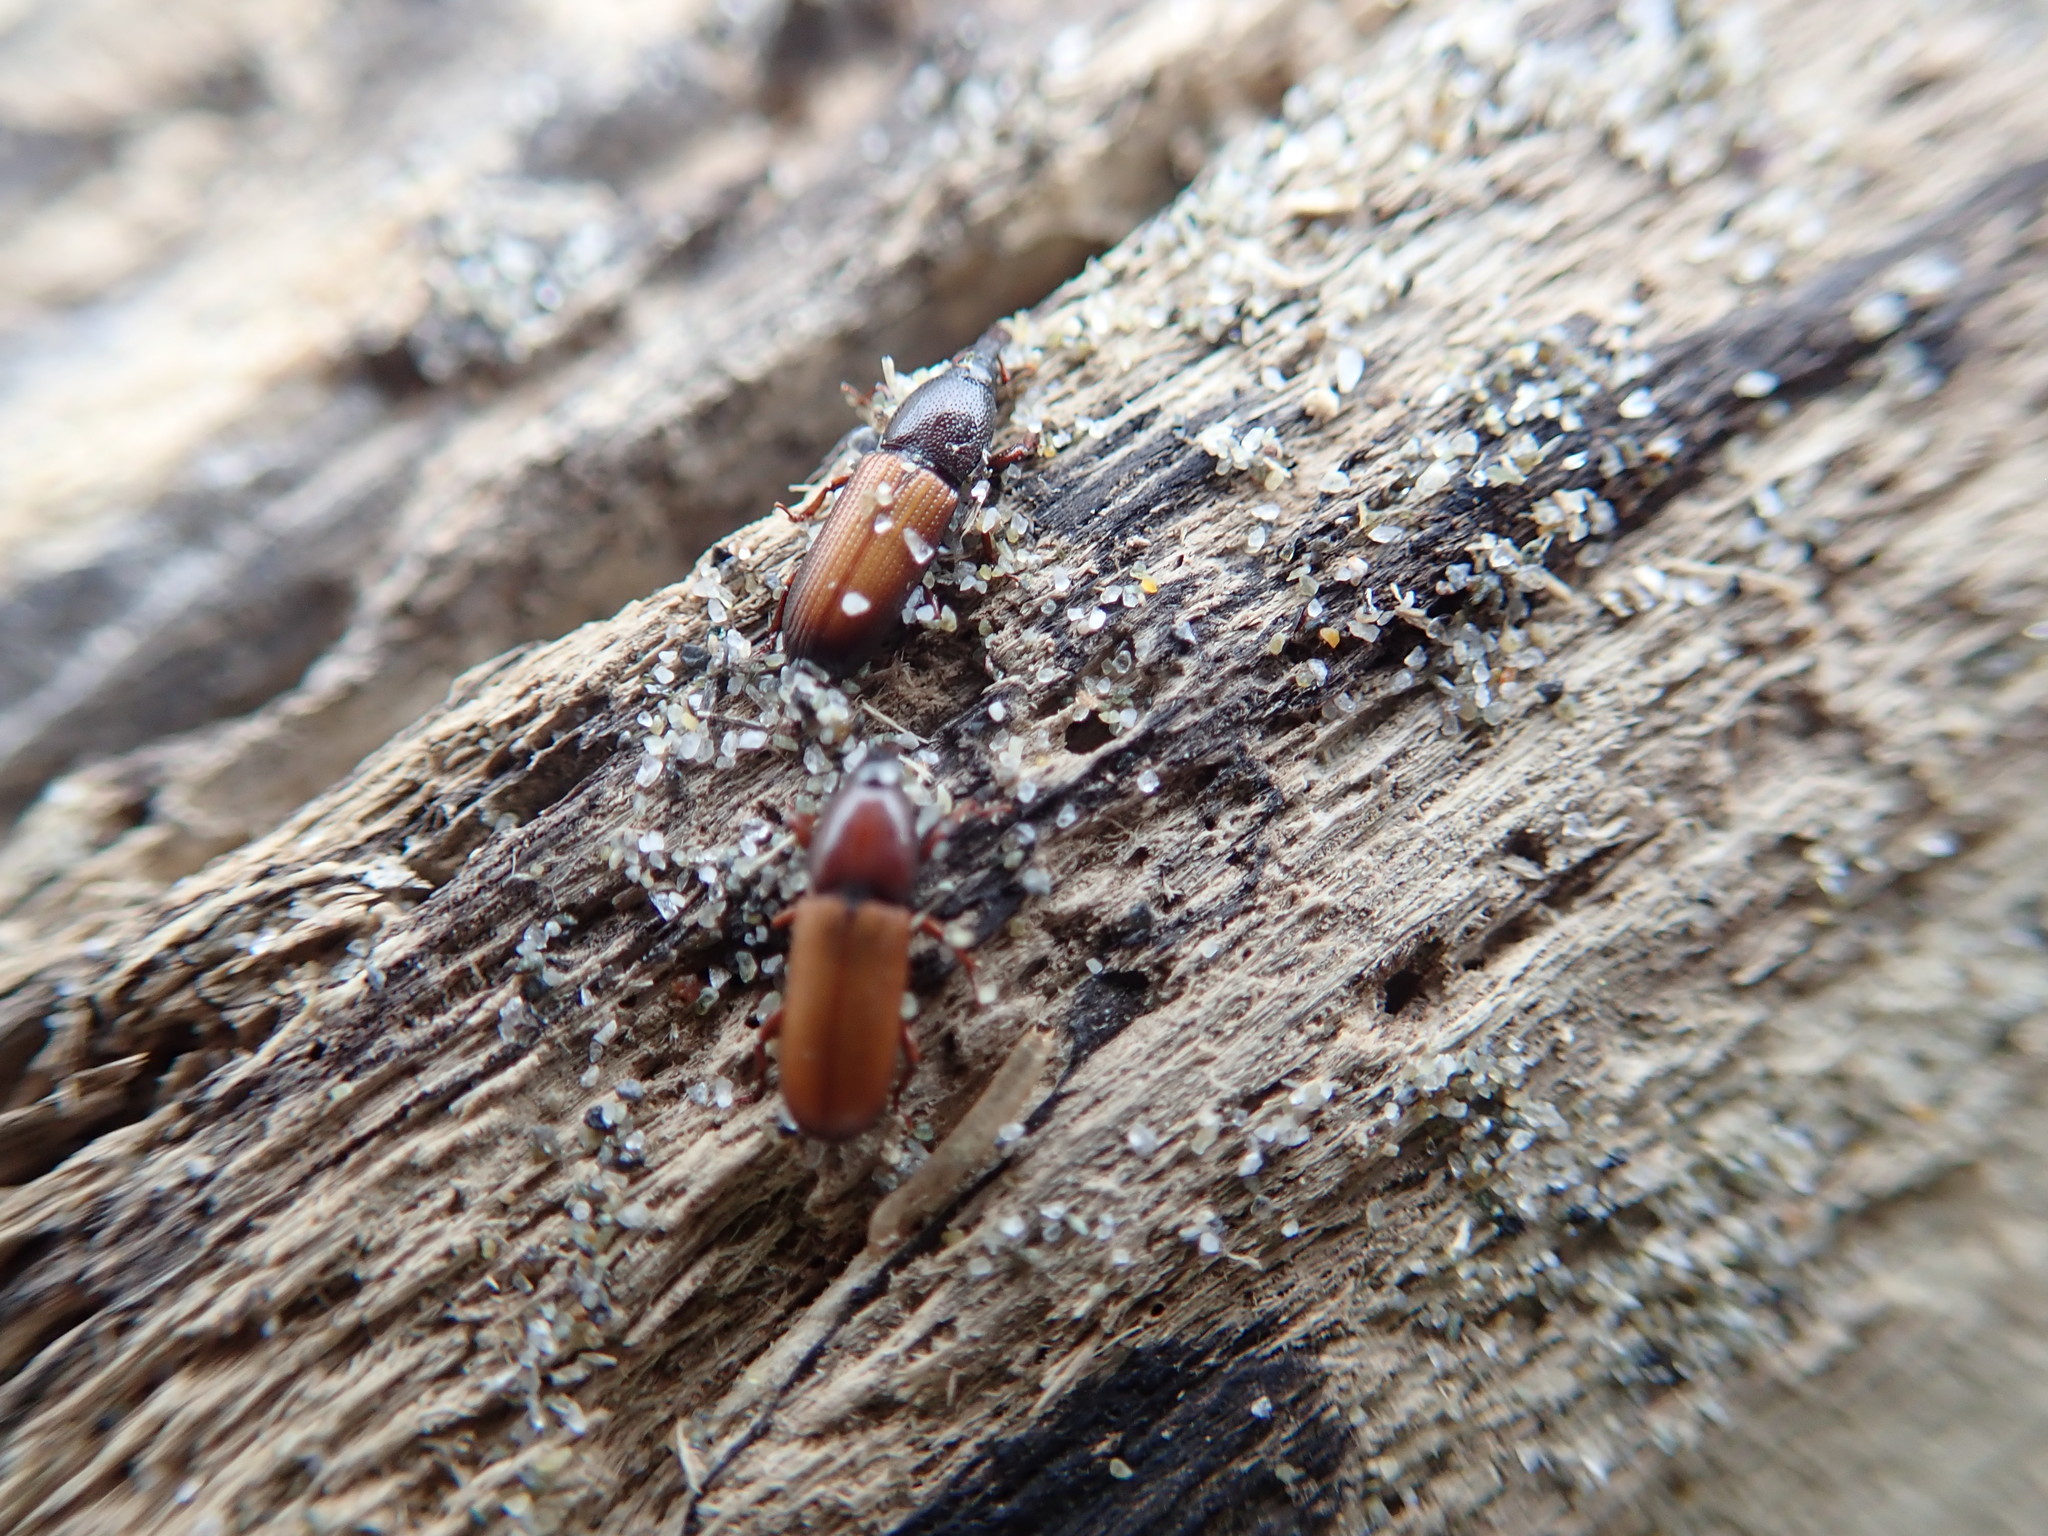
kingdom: Animalia
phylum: Arthropoda
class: Insecta
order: Coleoptera
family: Curculionidae
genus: Mesites
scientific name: Mesites pallidipennis
